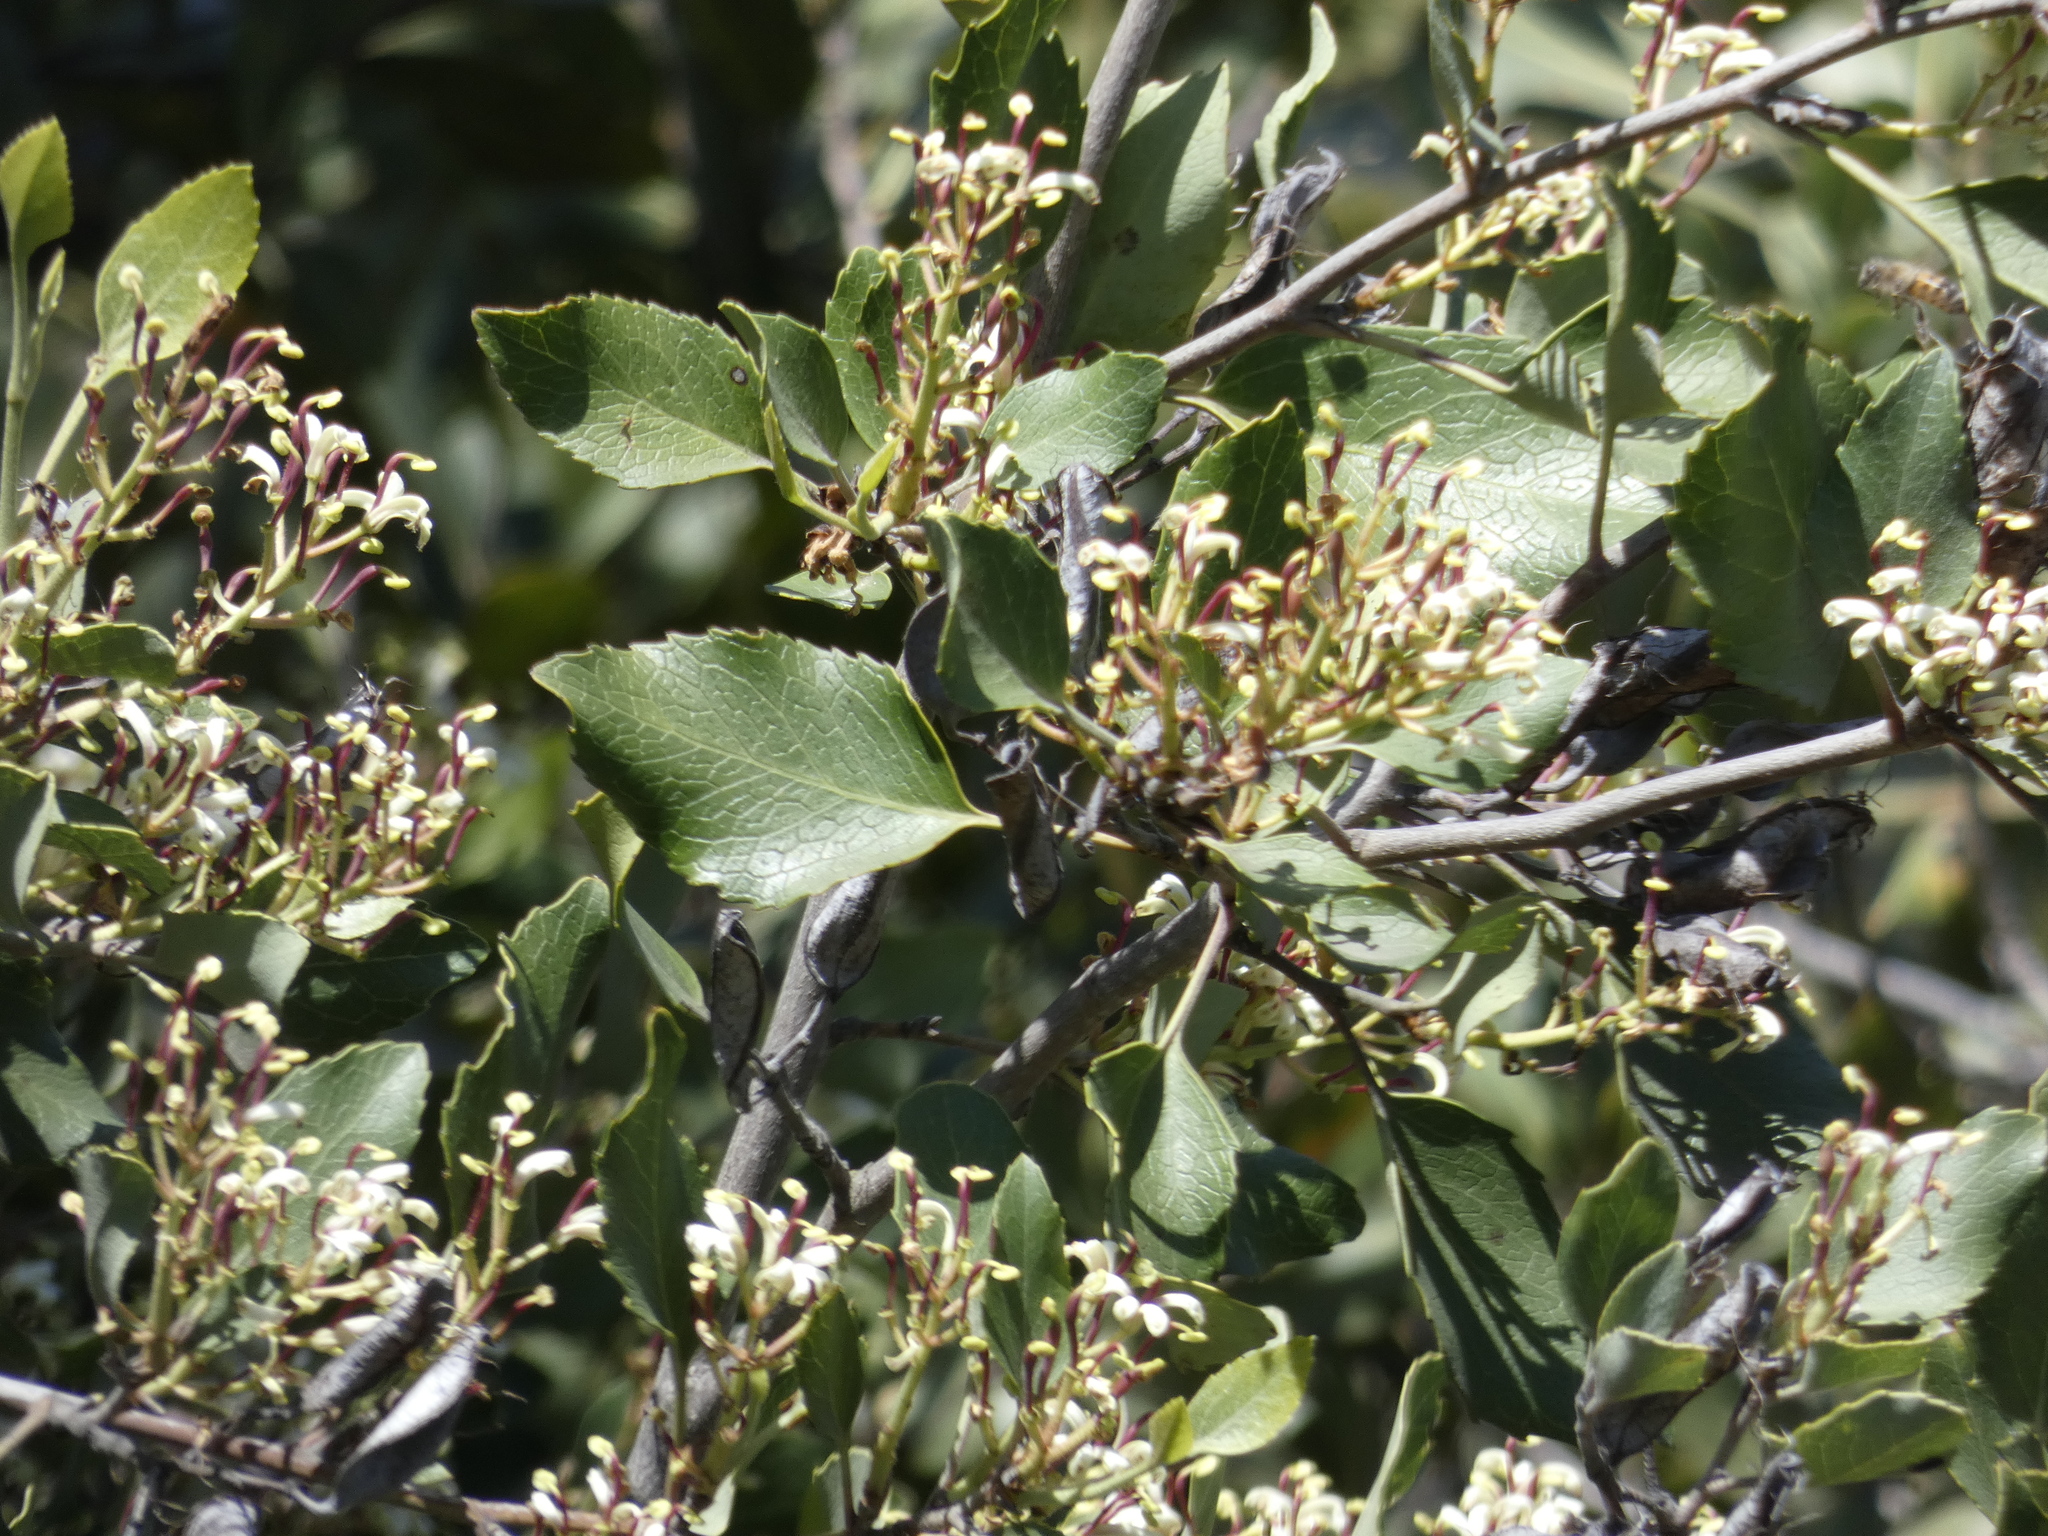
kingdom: Plantae
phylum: Tracheophyta
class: Magnoliopsida
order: Proteales
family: Proteaceae
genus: Lomatia
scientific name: Lomatia hirsuta
